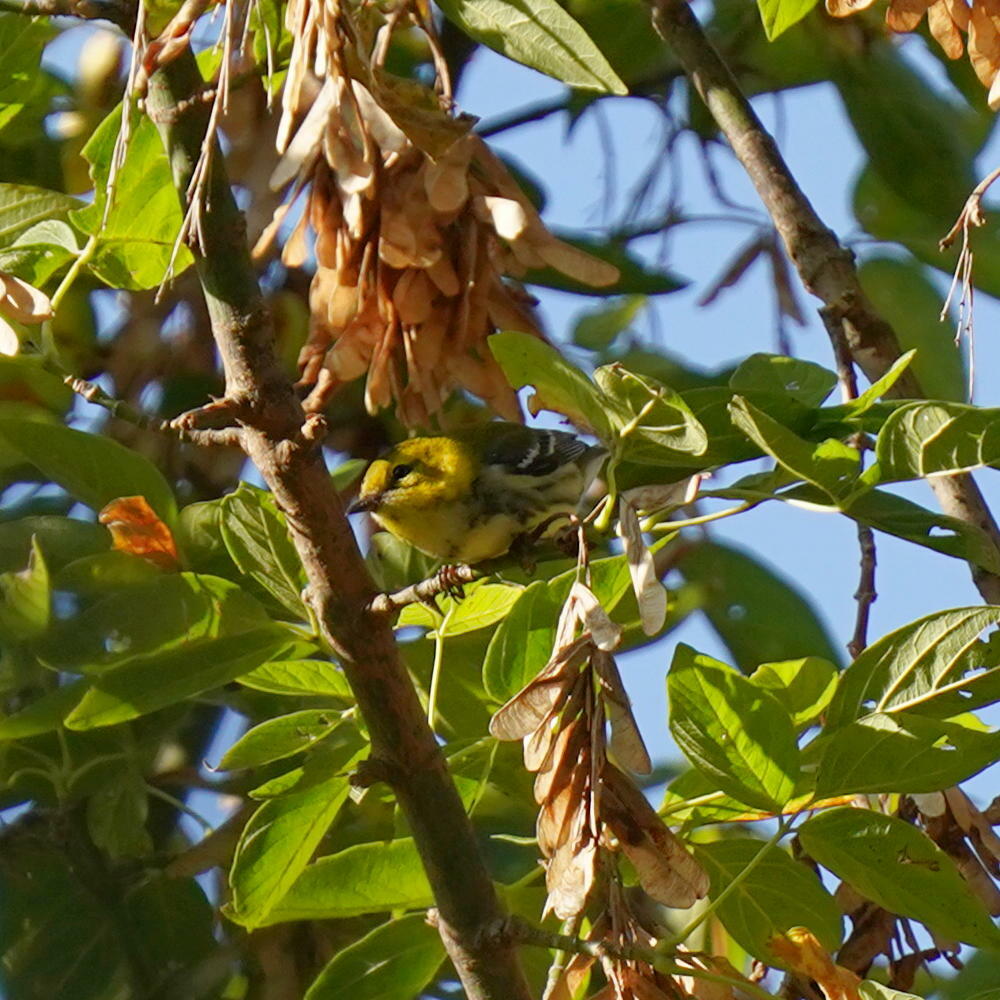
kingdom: Animalia
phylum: Chordata
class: Aves
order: Passeriformes
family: Parulidae
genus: Setophaga
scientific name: Setophaga virens
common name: Black-throated green warbler
